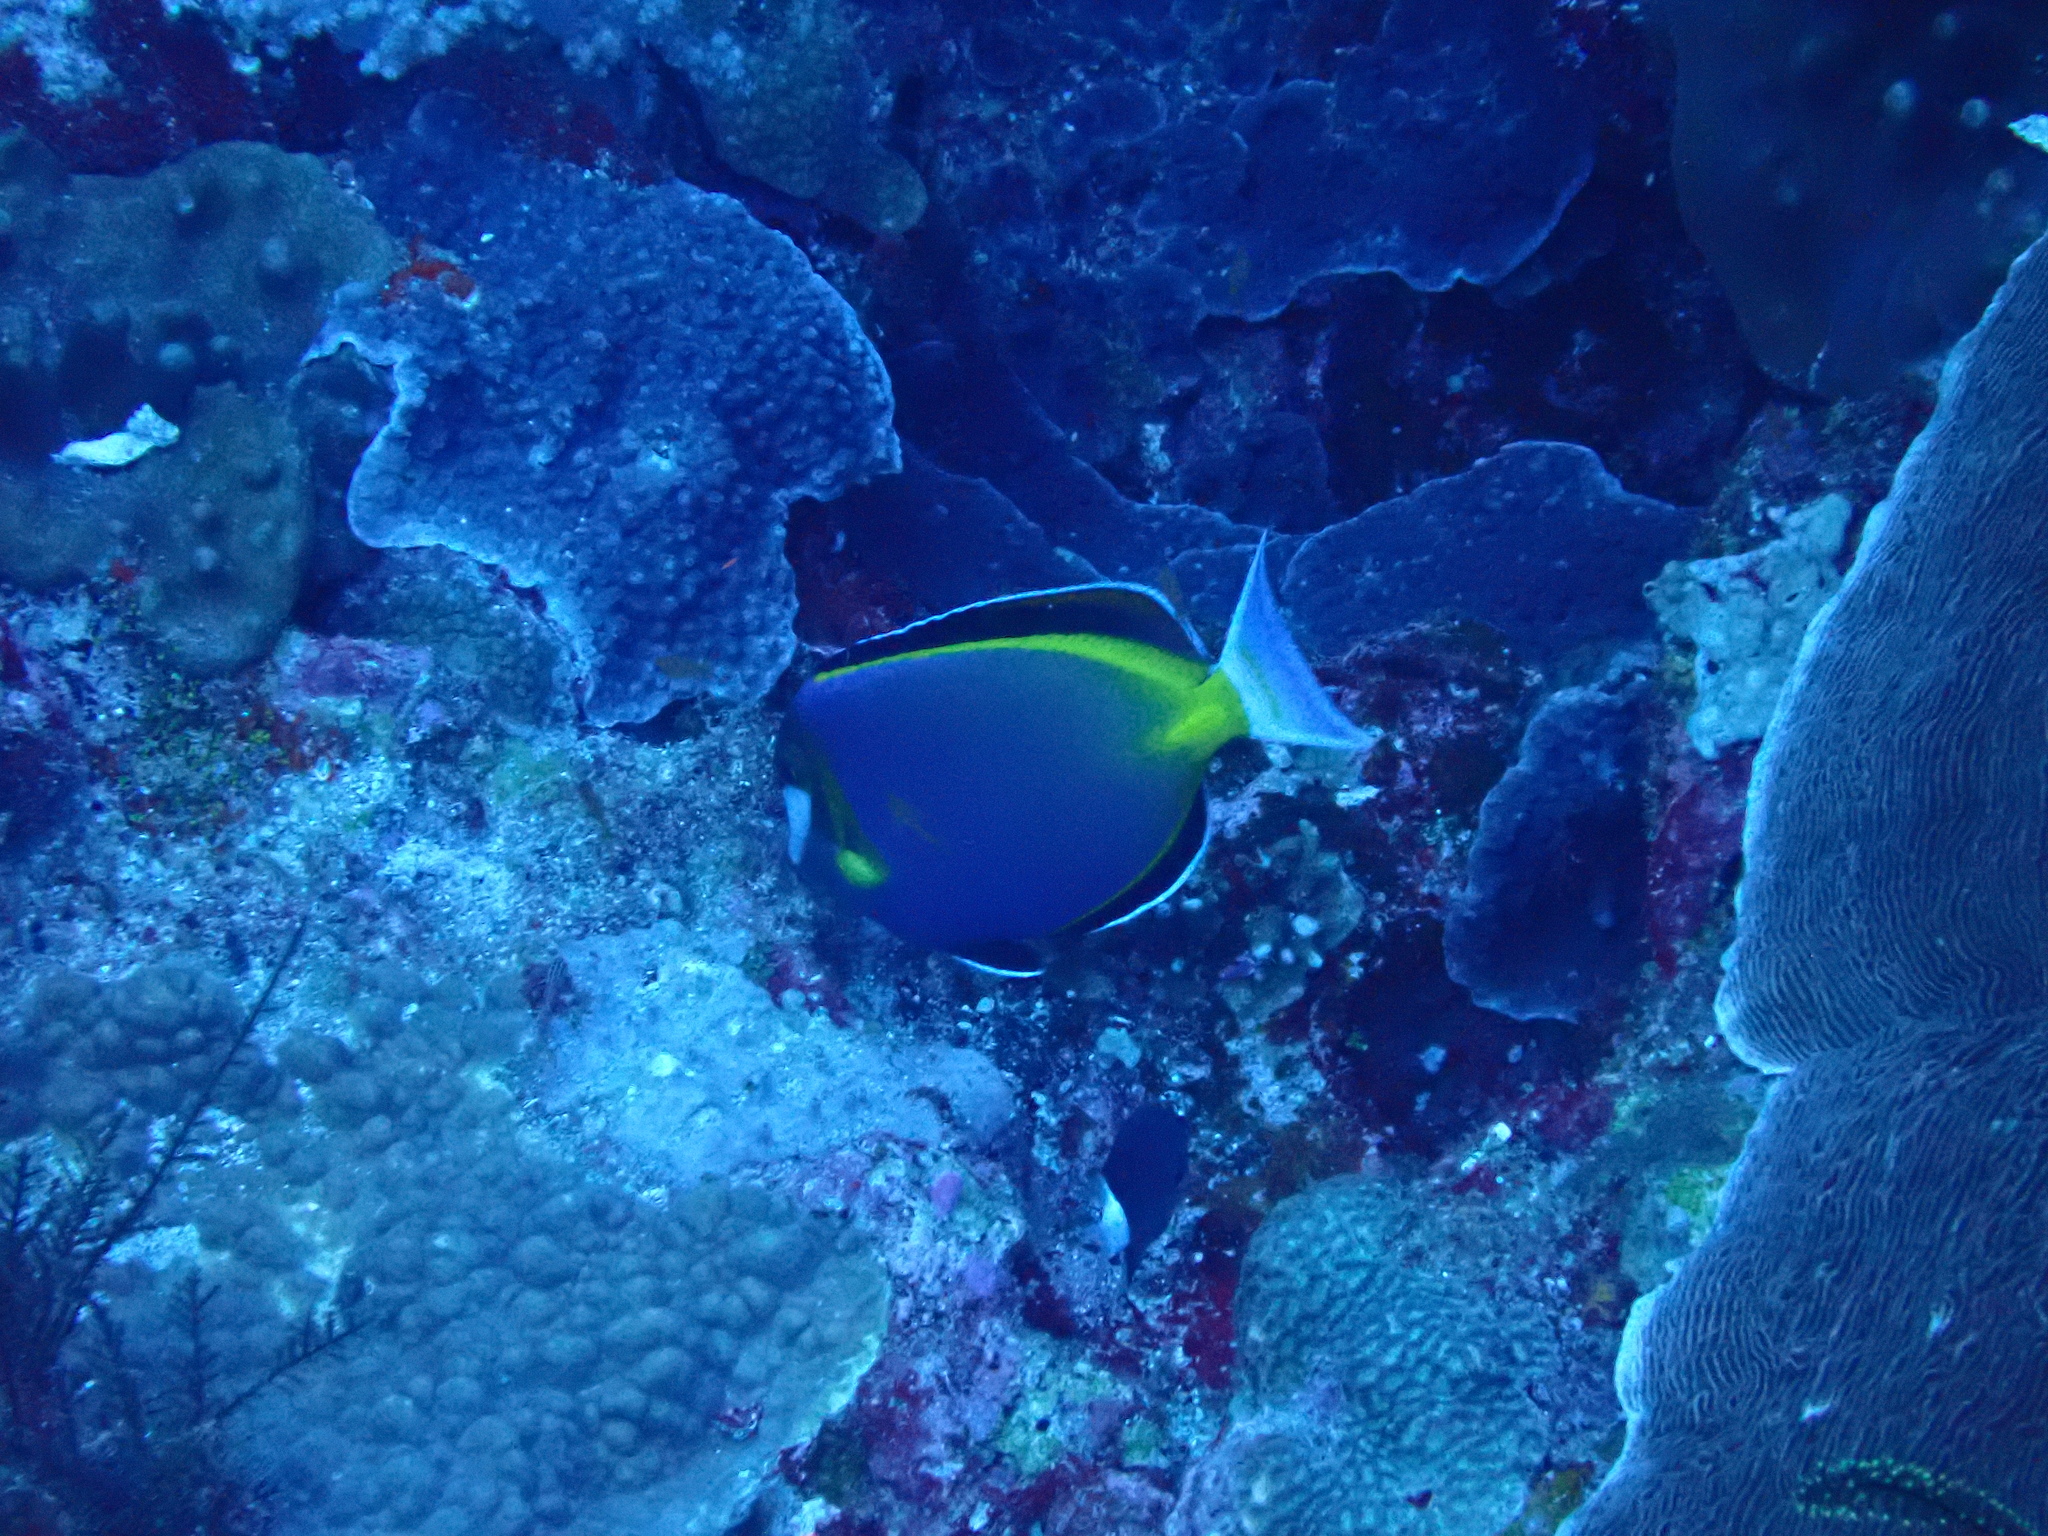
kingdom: Animalia
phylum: Chordata
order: Perciformes
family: Acanthuridae
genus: Acanthurus
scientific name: Acanthurus nigricans
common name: Whitecheek surgeonfish
